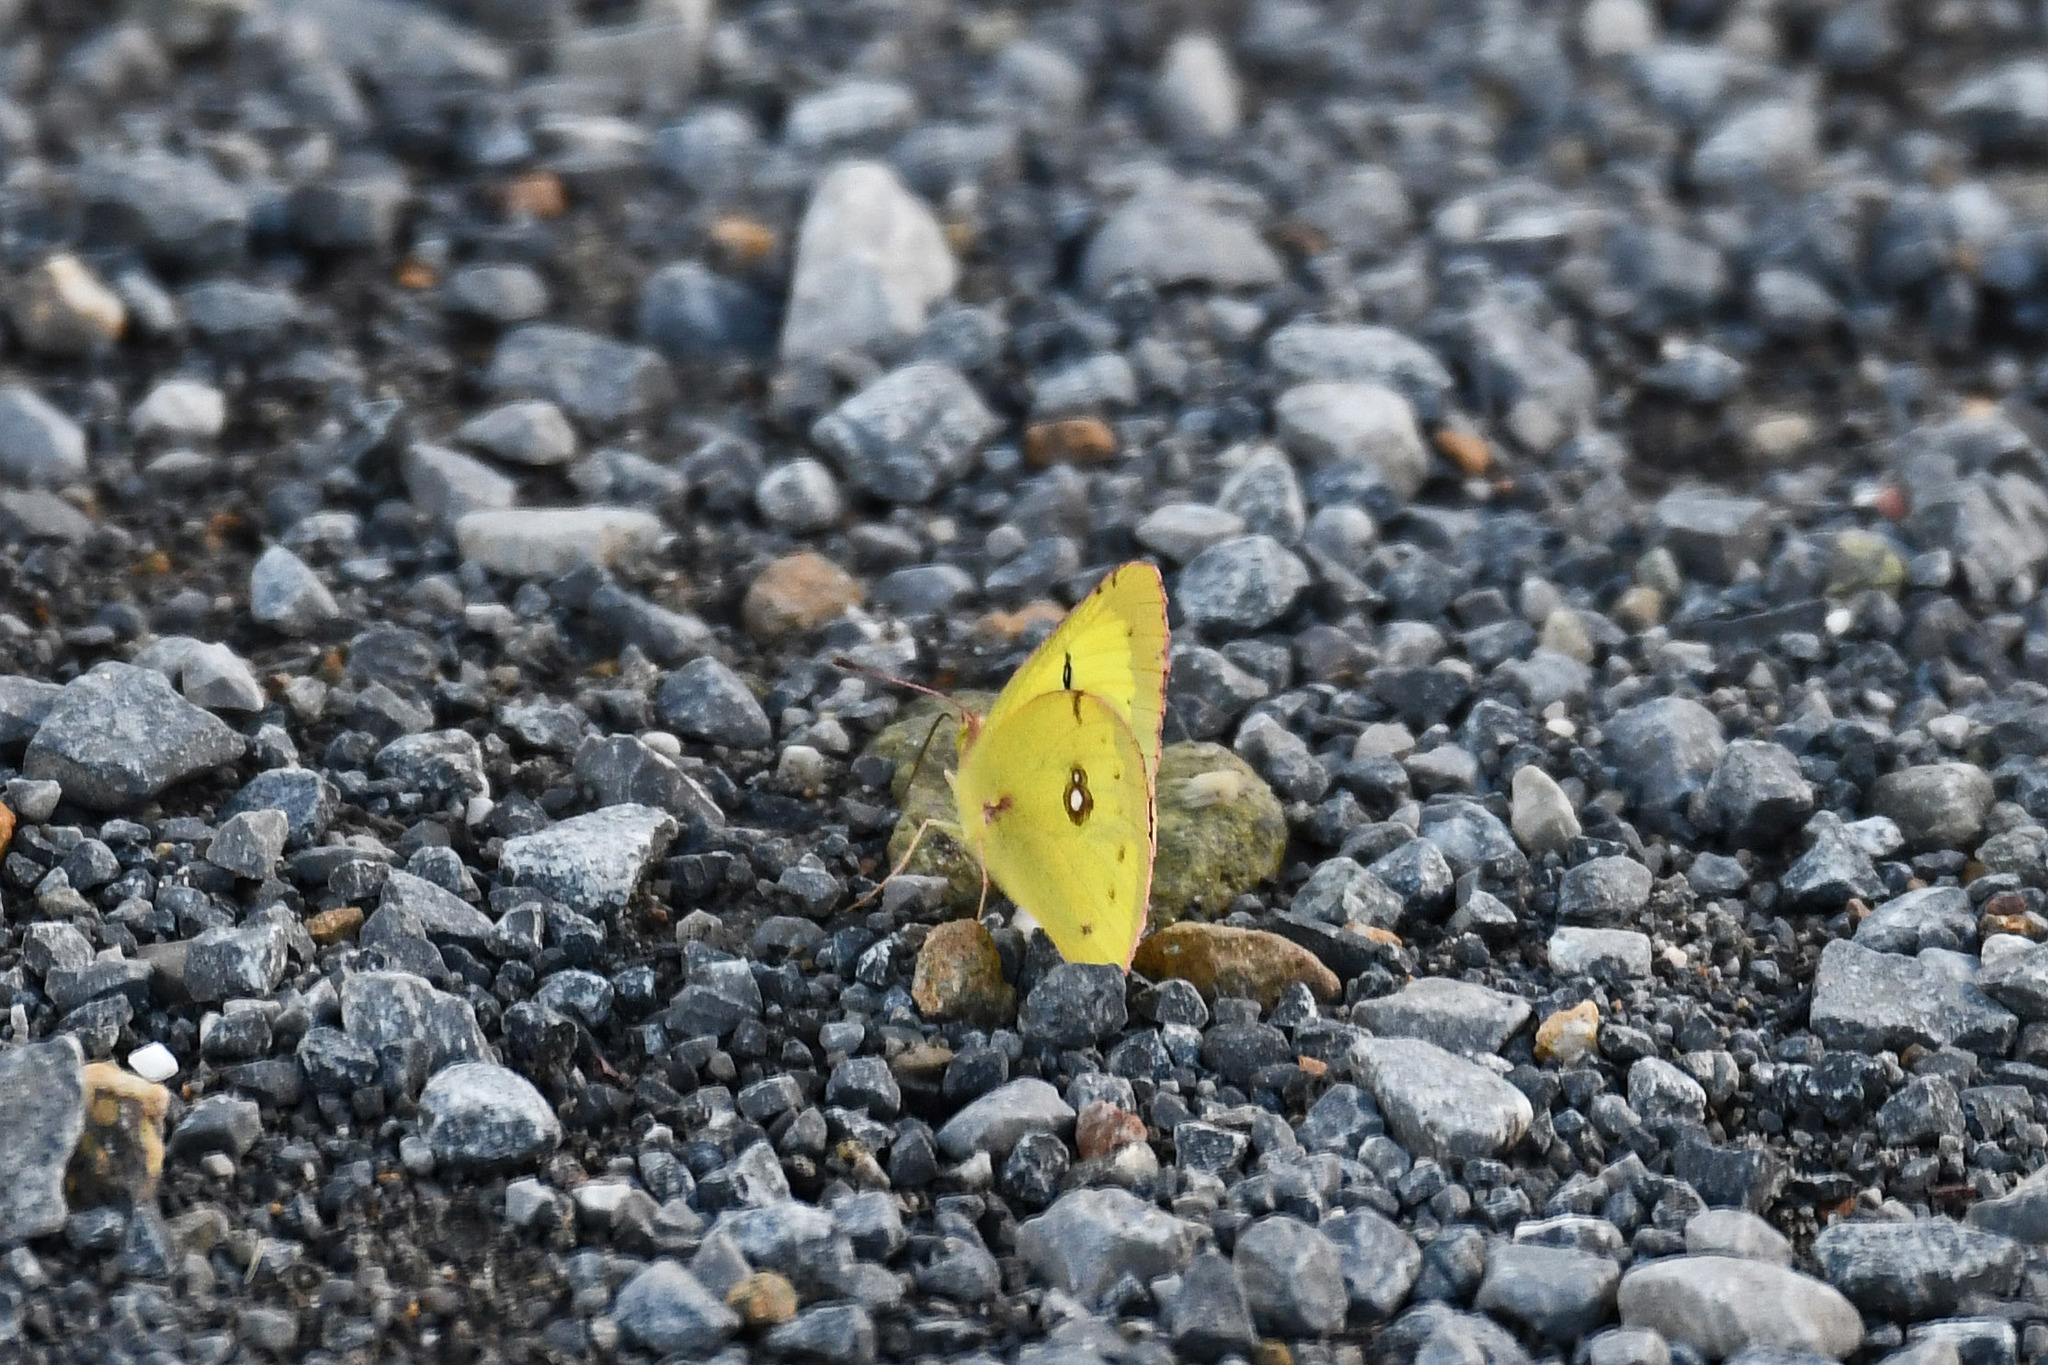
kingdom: Animalia
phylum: Arthropoda
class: Insecta
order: Lepidoptera
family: Pieridae
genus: Colias
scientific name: Colias philodice
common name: Clouded sulphur
